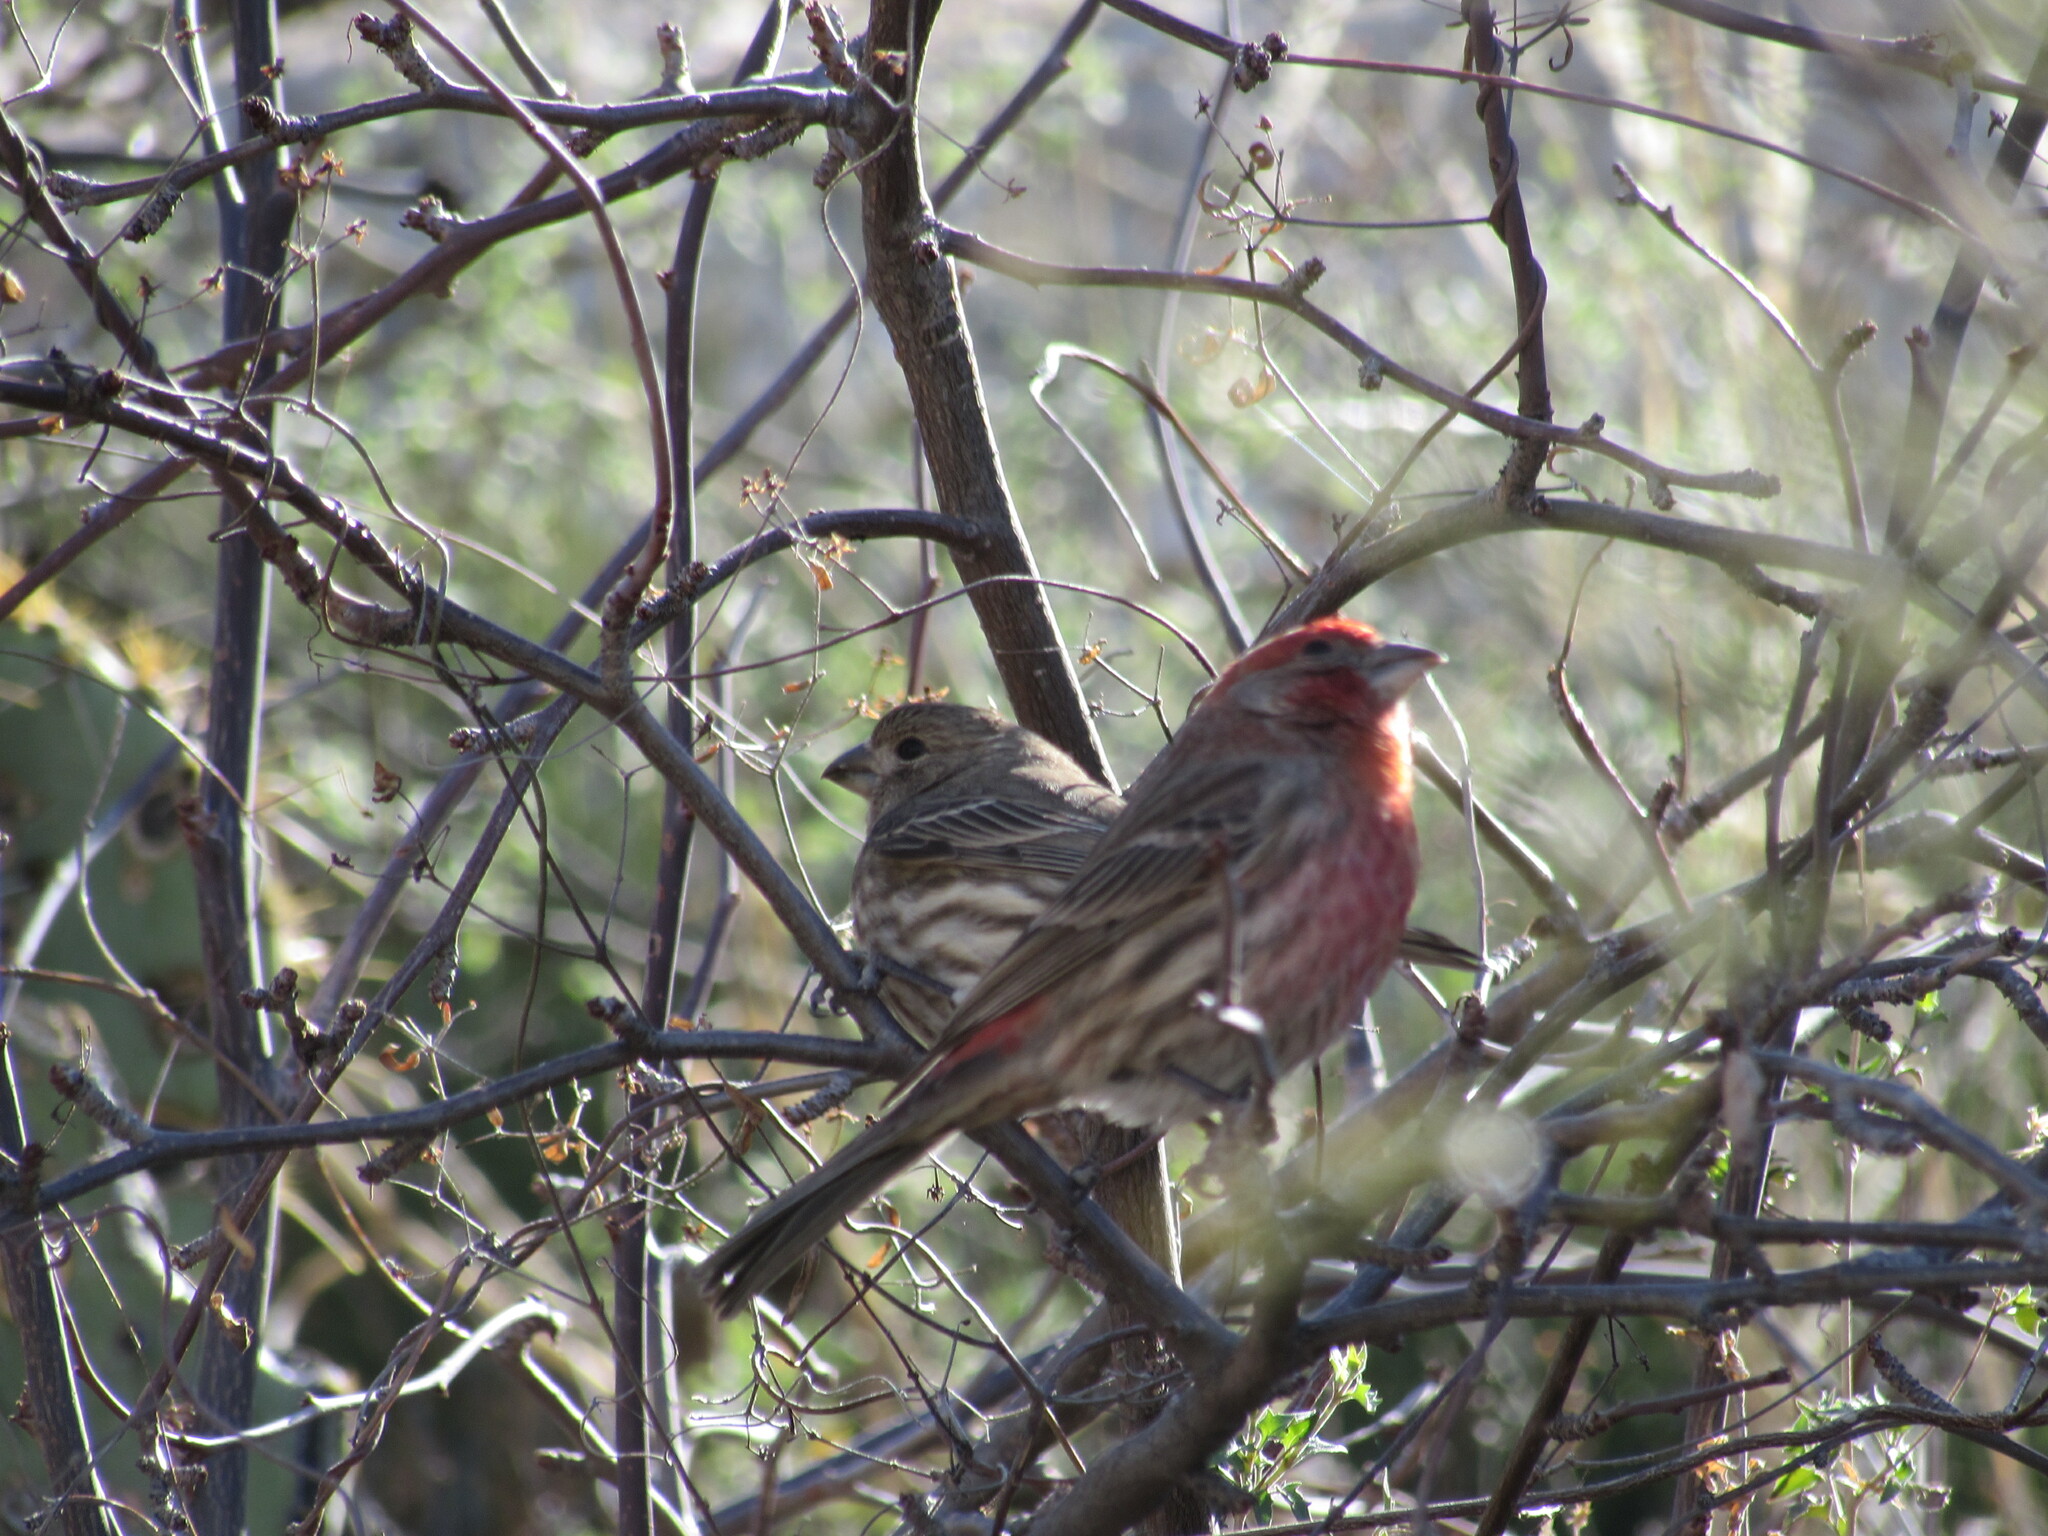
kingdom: Animalia
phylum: Chordata
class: Aves
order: Passeriformes
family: Fringillidae
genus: Haemorhous
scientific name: Haemorhous mexicanus
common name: House finch
